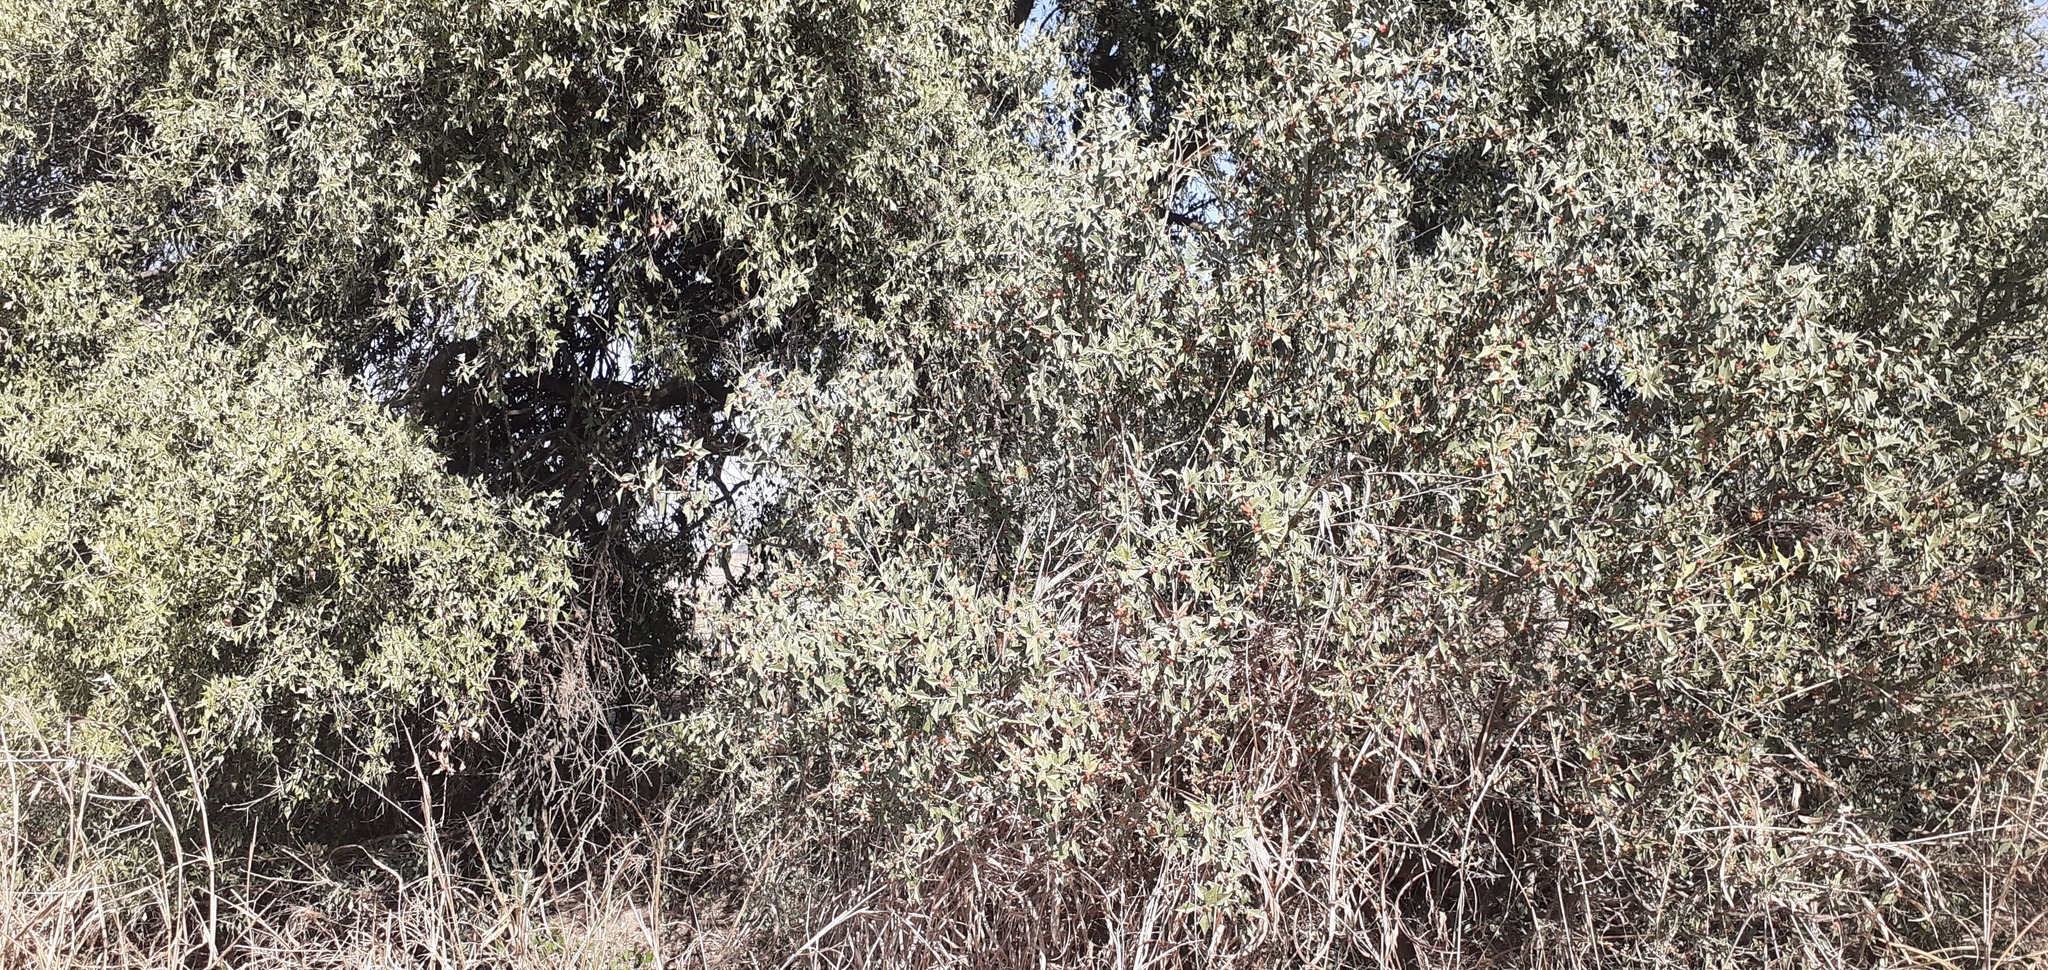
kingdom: Plantae
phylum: Tracheophyta
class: Magnoliopsida
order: Santalales
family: Cervantesiaceae
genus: Jodina
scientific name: Jodina rhombifolia
